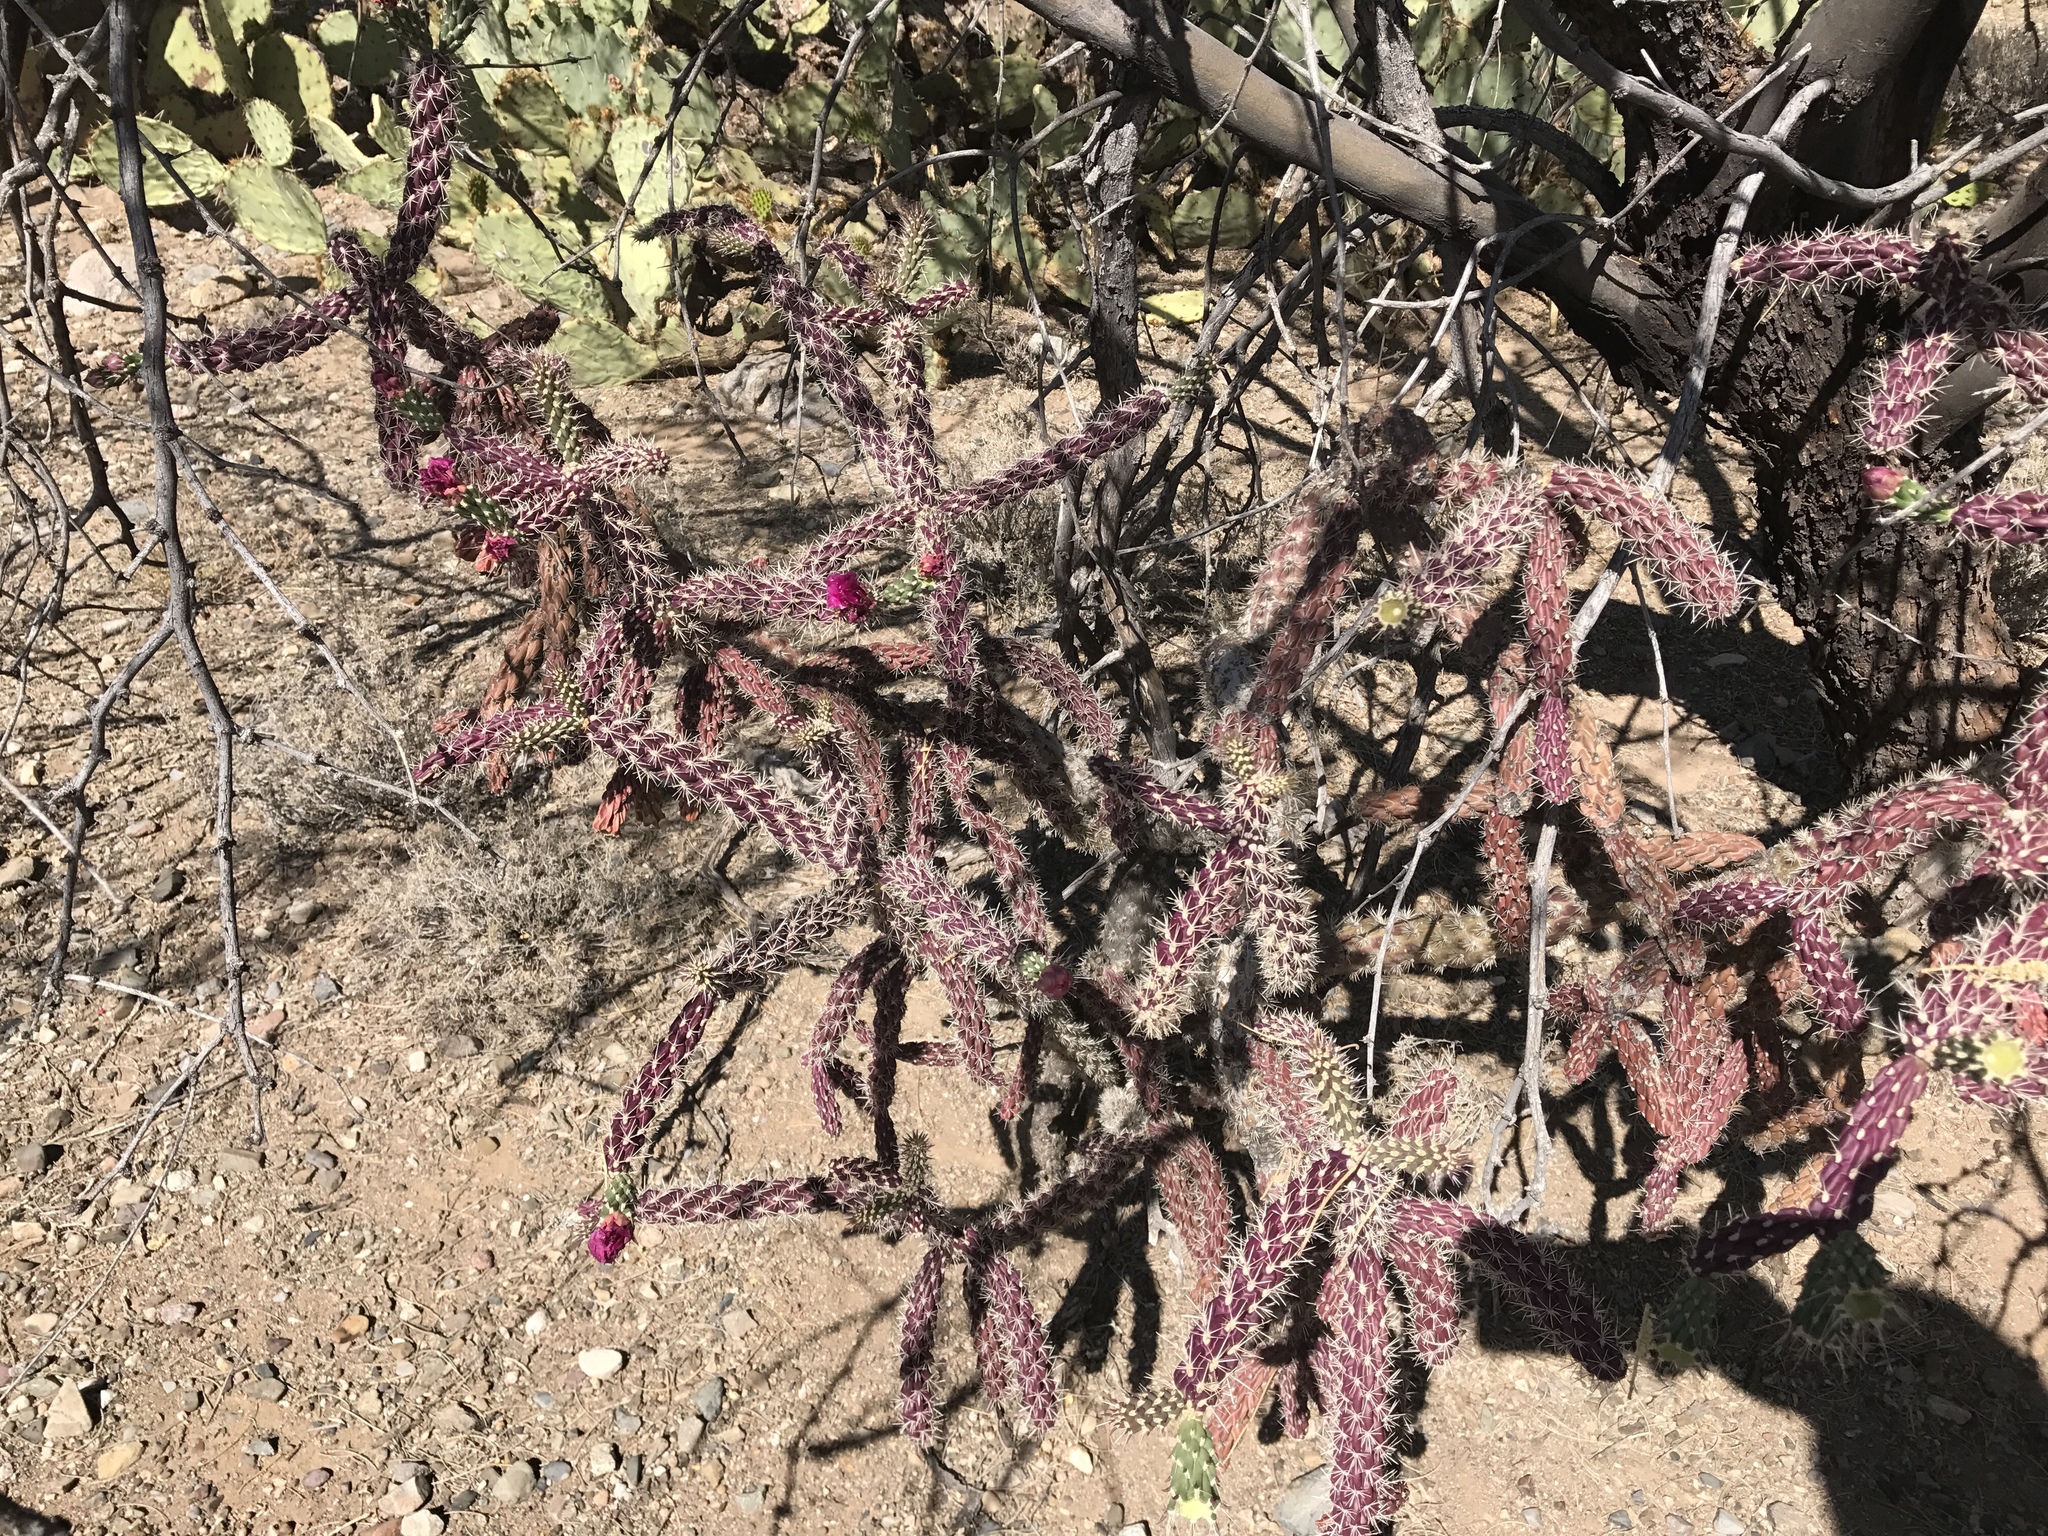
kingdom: Plantae
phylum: Tracheophyta
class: Magnoliopsida
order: Caryophyllales
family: Cactaceae
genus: Cylindropuntia
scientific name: Cylindropuntia thurberi
